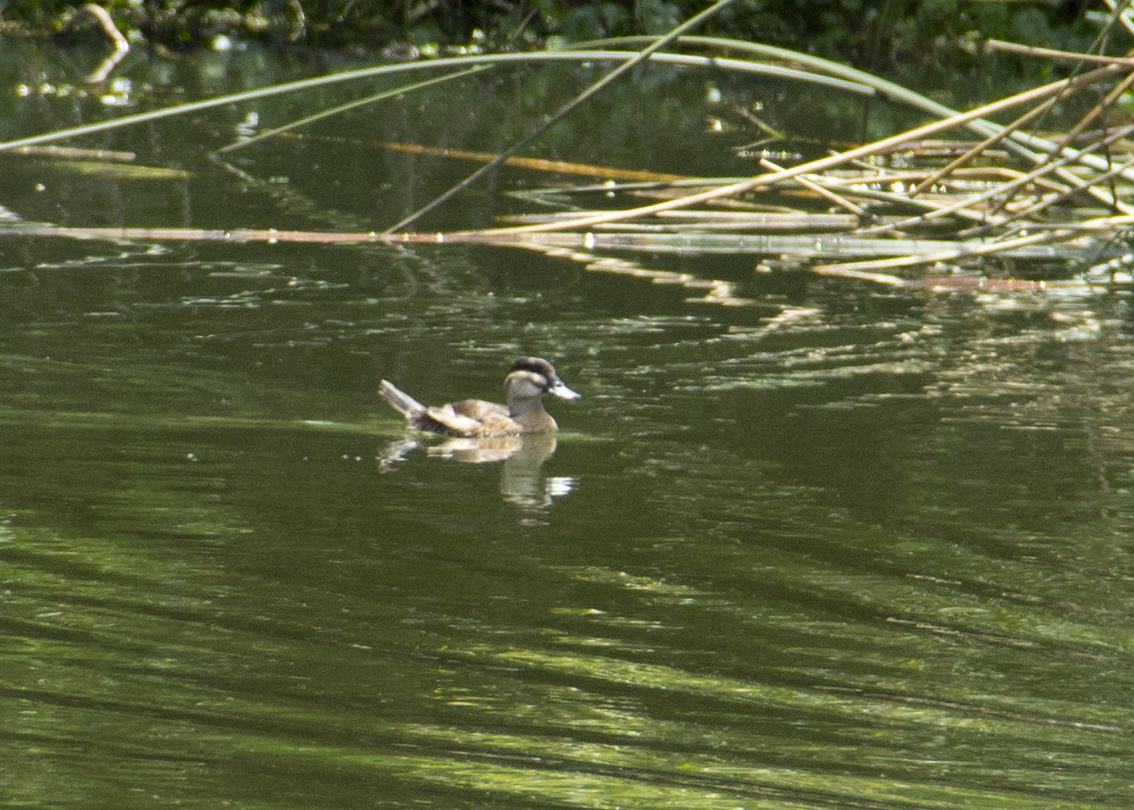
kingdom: Animalia
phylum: Chordata
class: Aves
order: Anseriformes
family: Anatidae
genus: Oxyura
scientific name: Oxyura ferruginea
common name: Andean duck
